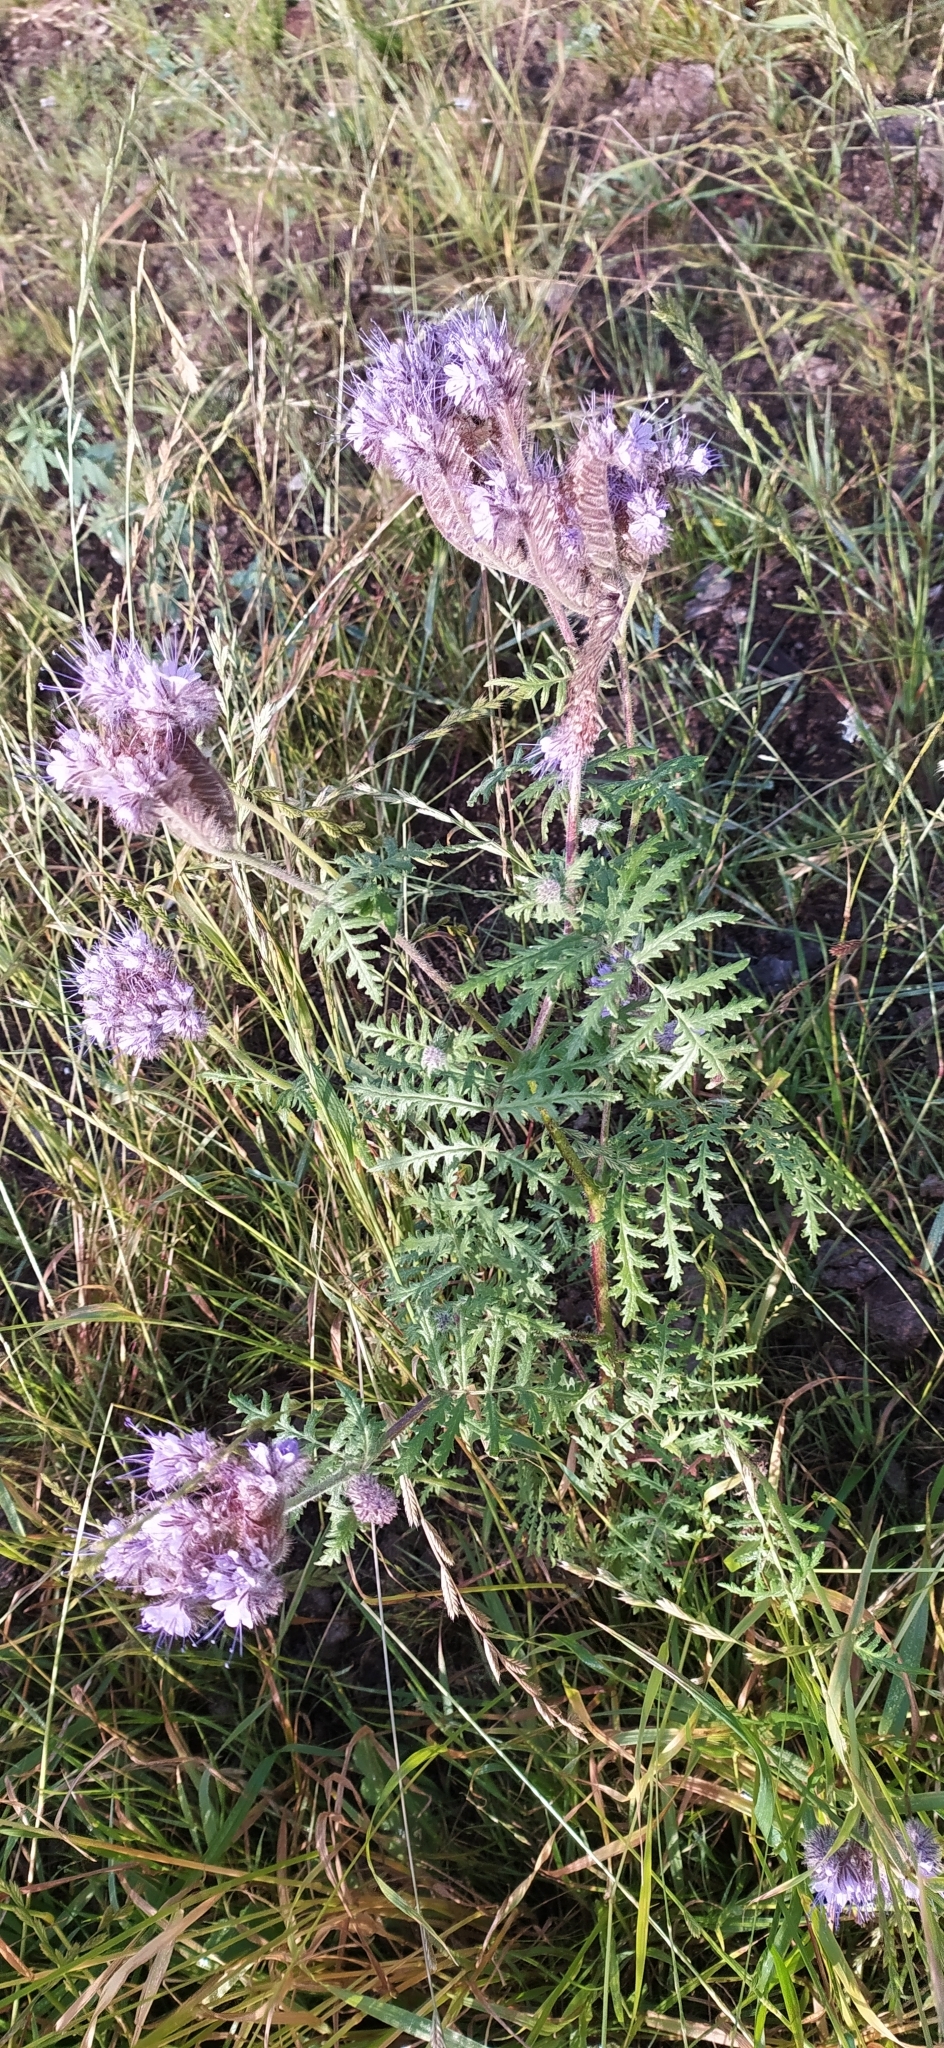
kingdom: Plantae
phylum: Tracheophyta
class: Magnoliopsida
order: Boraginales
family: Hydrophyllaceae
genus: Phacelia
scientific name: Phacelia tanacetifolia
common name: Phacelia
